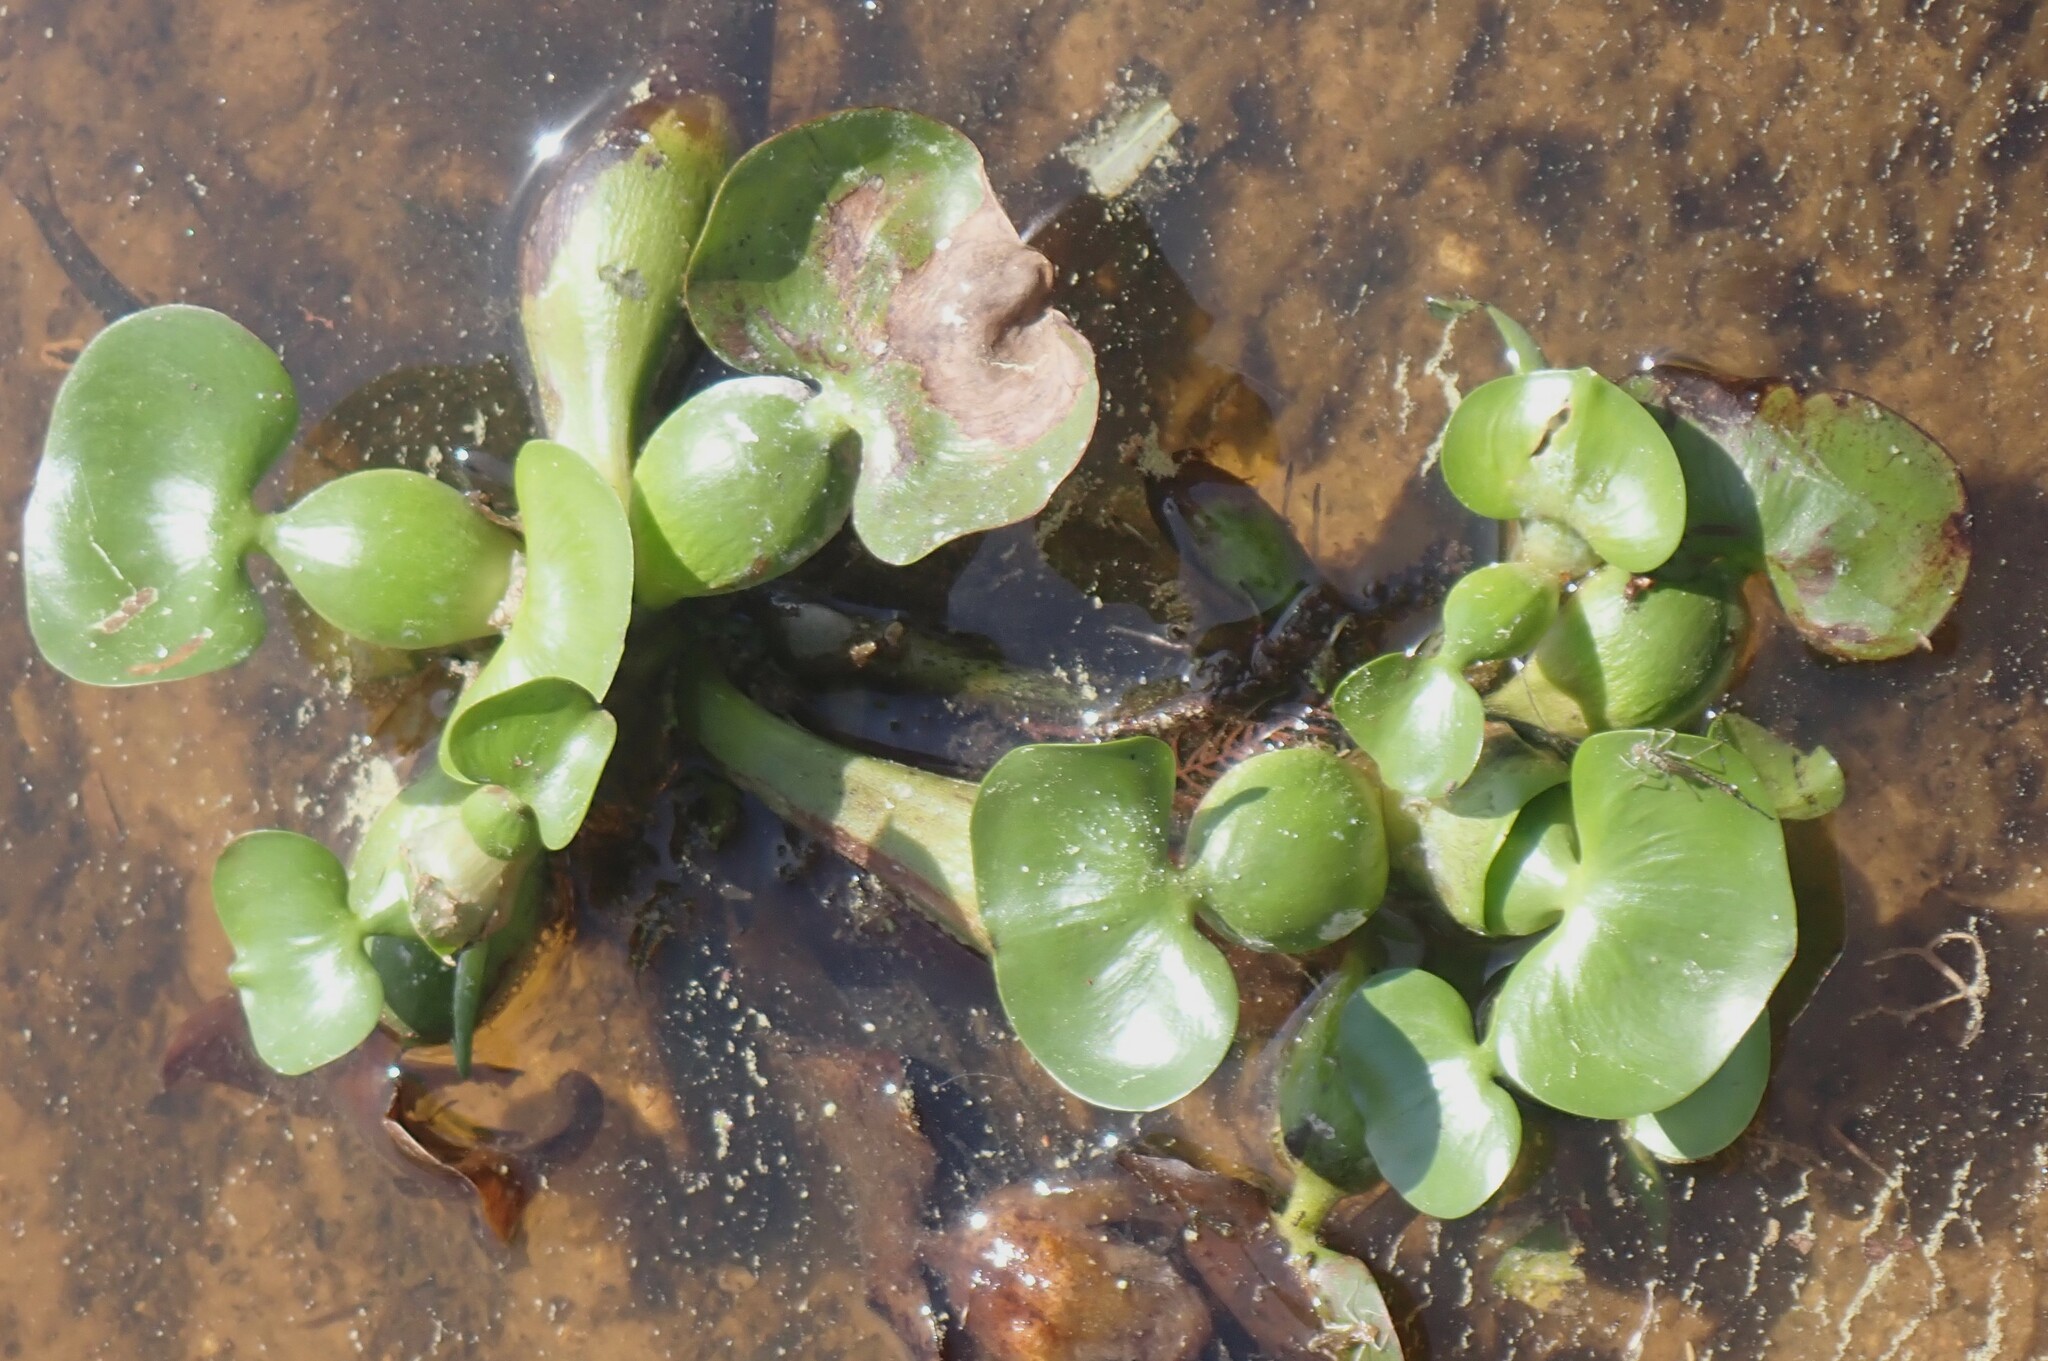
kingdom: Plantae
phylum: Tracheophyta
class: Liliopsida
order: Commelinales
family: Pontederiaceae
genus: Pontederia
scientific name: Pontederia crassipes
